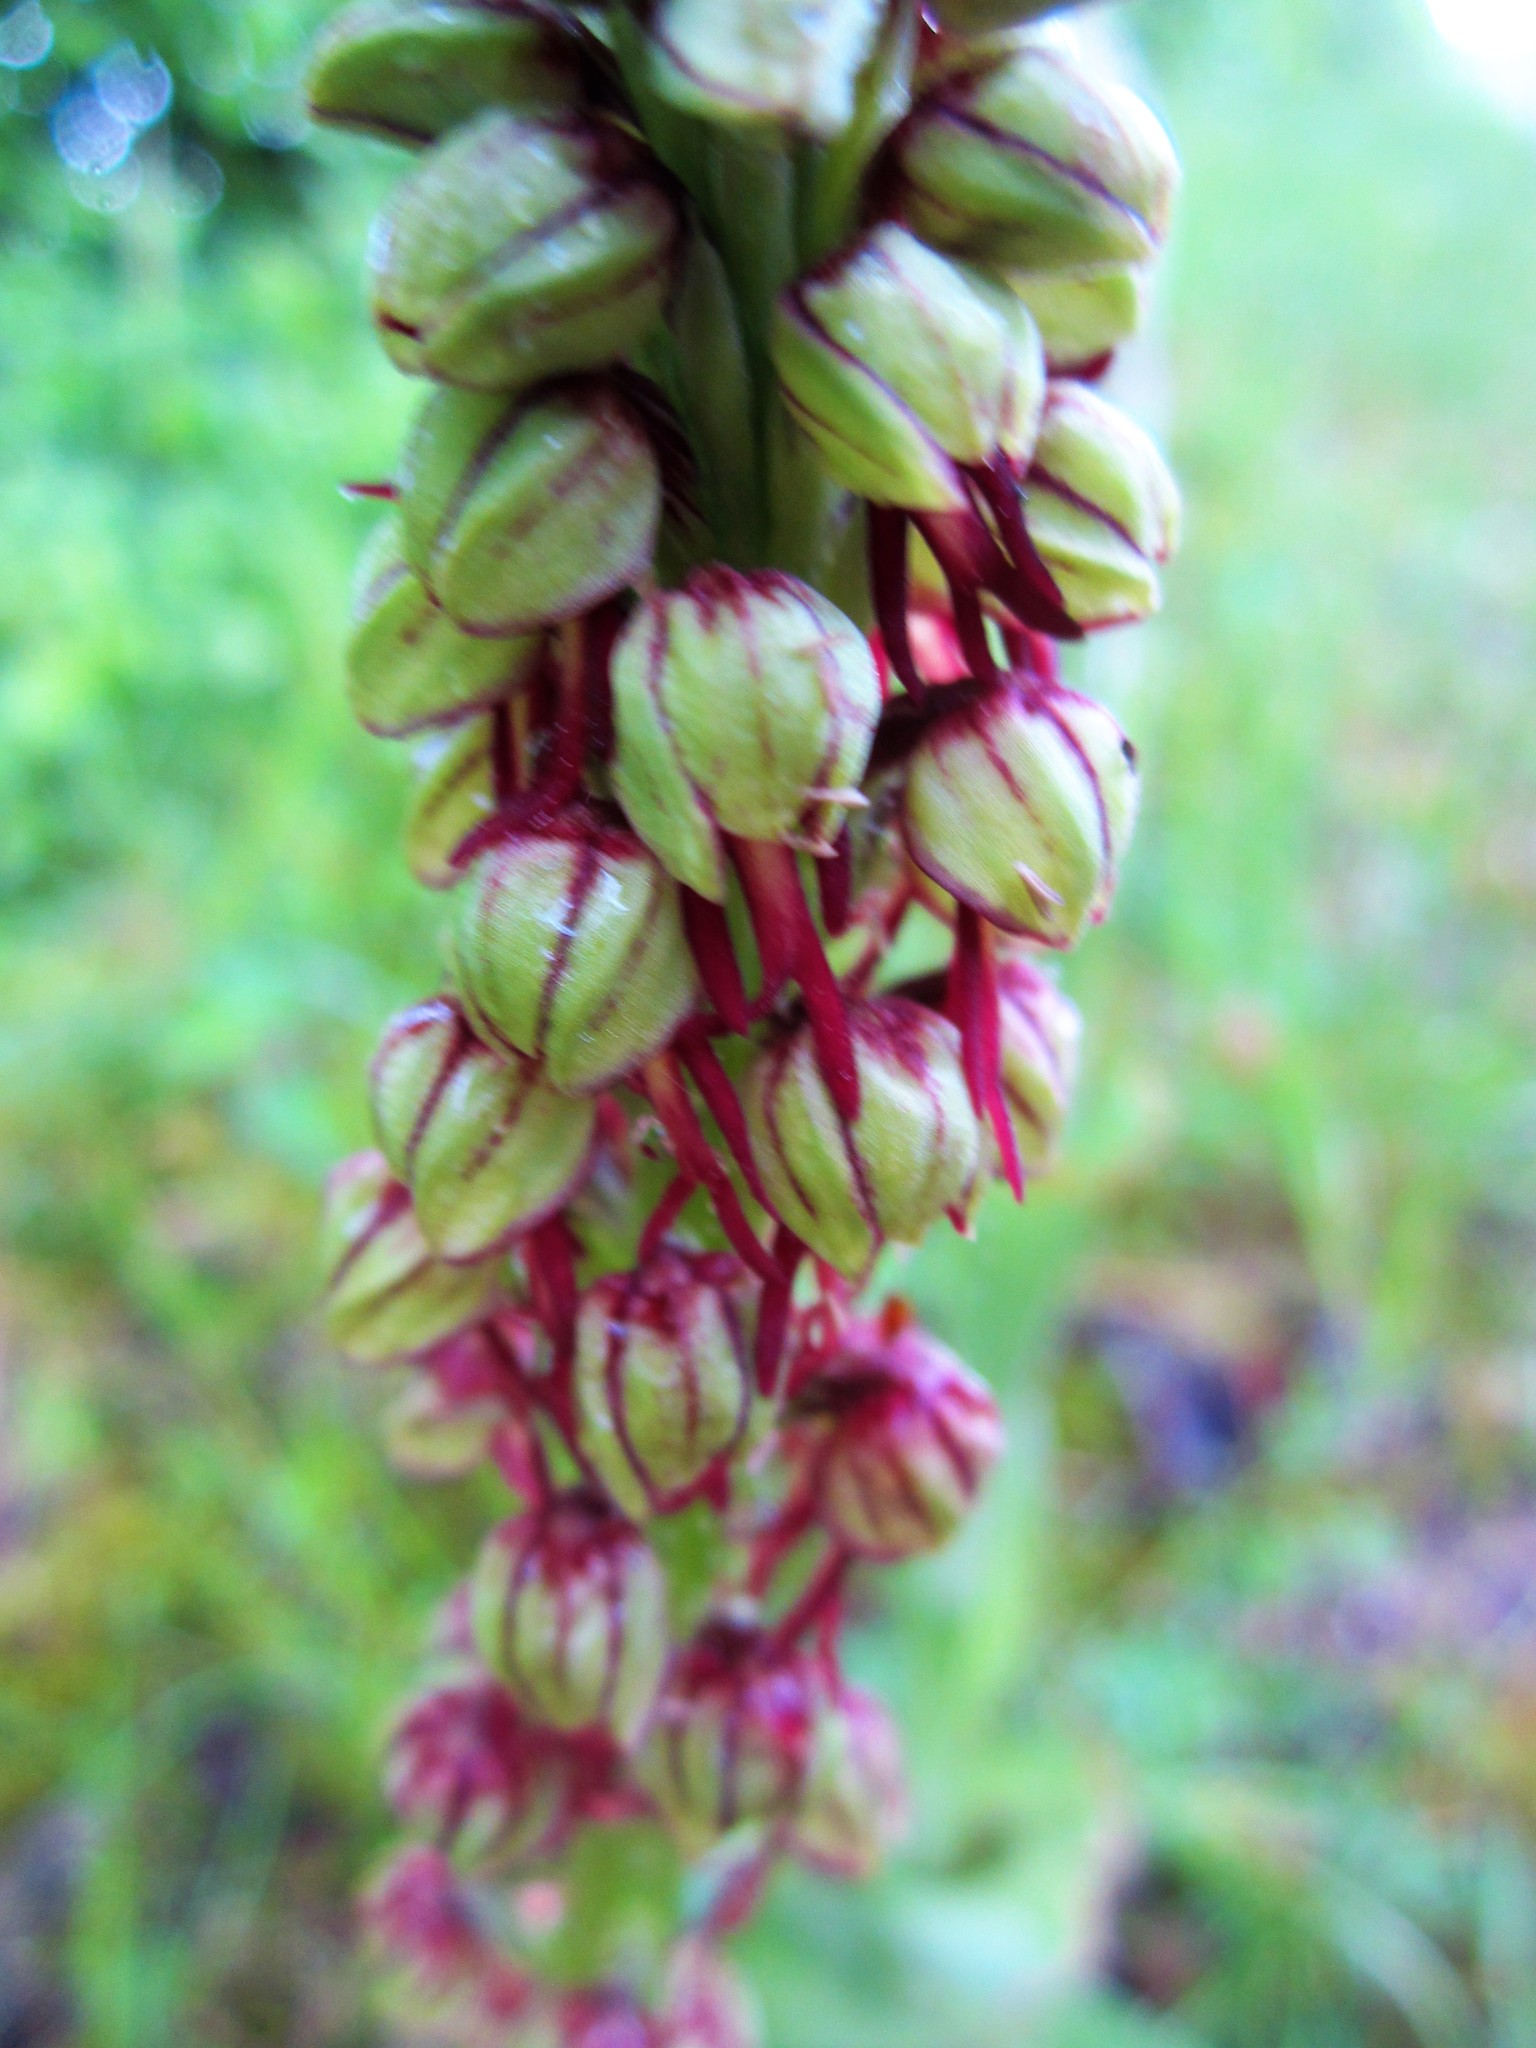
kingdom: Plantae
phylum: Tracheophyta
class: Liliopsida
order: Asparagales
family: Orchidaceae
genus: Orchis
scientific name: Orchis anthropophora
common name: Man orchid
